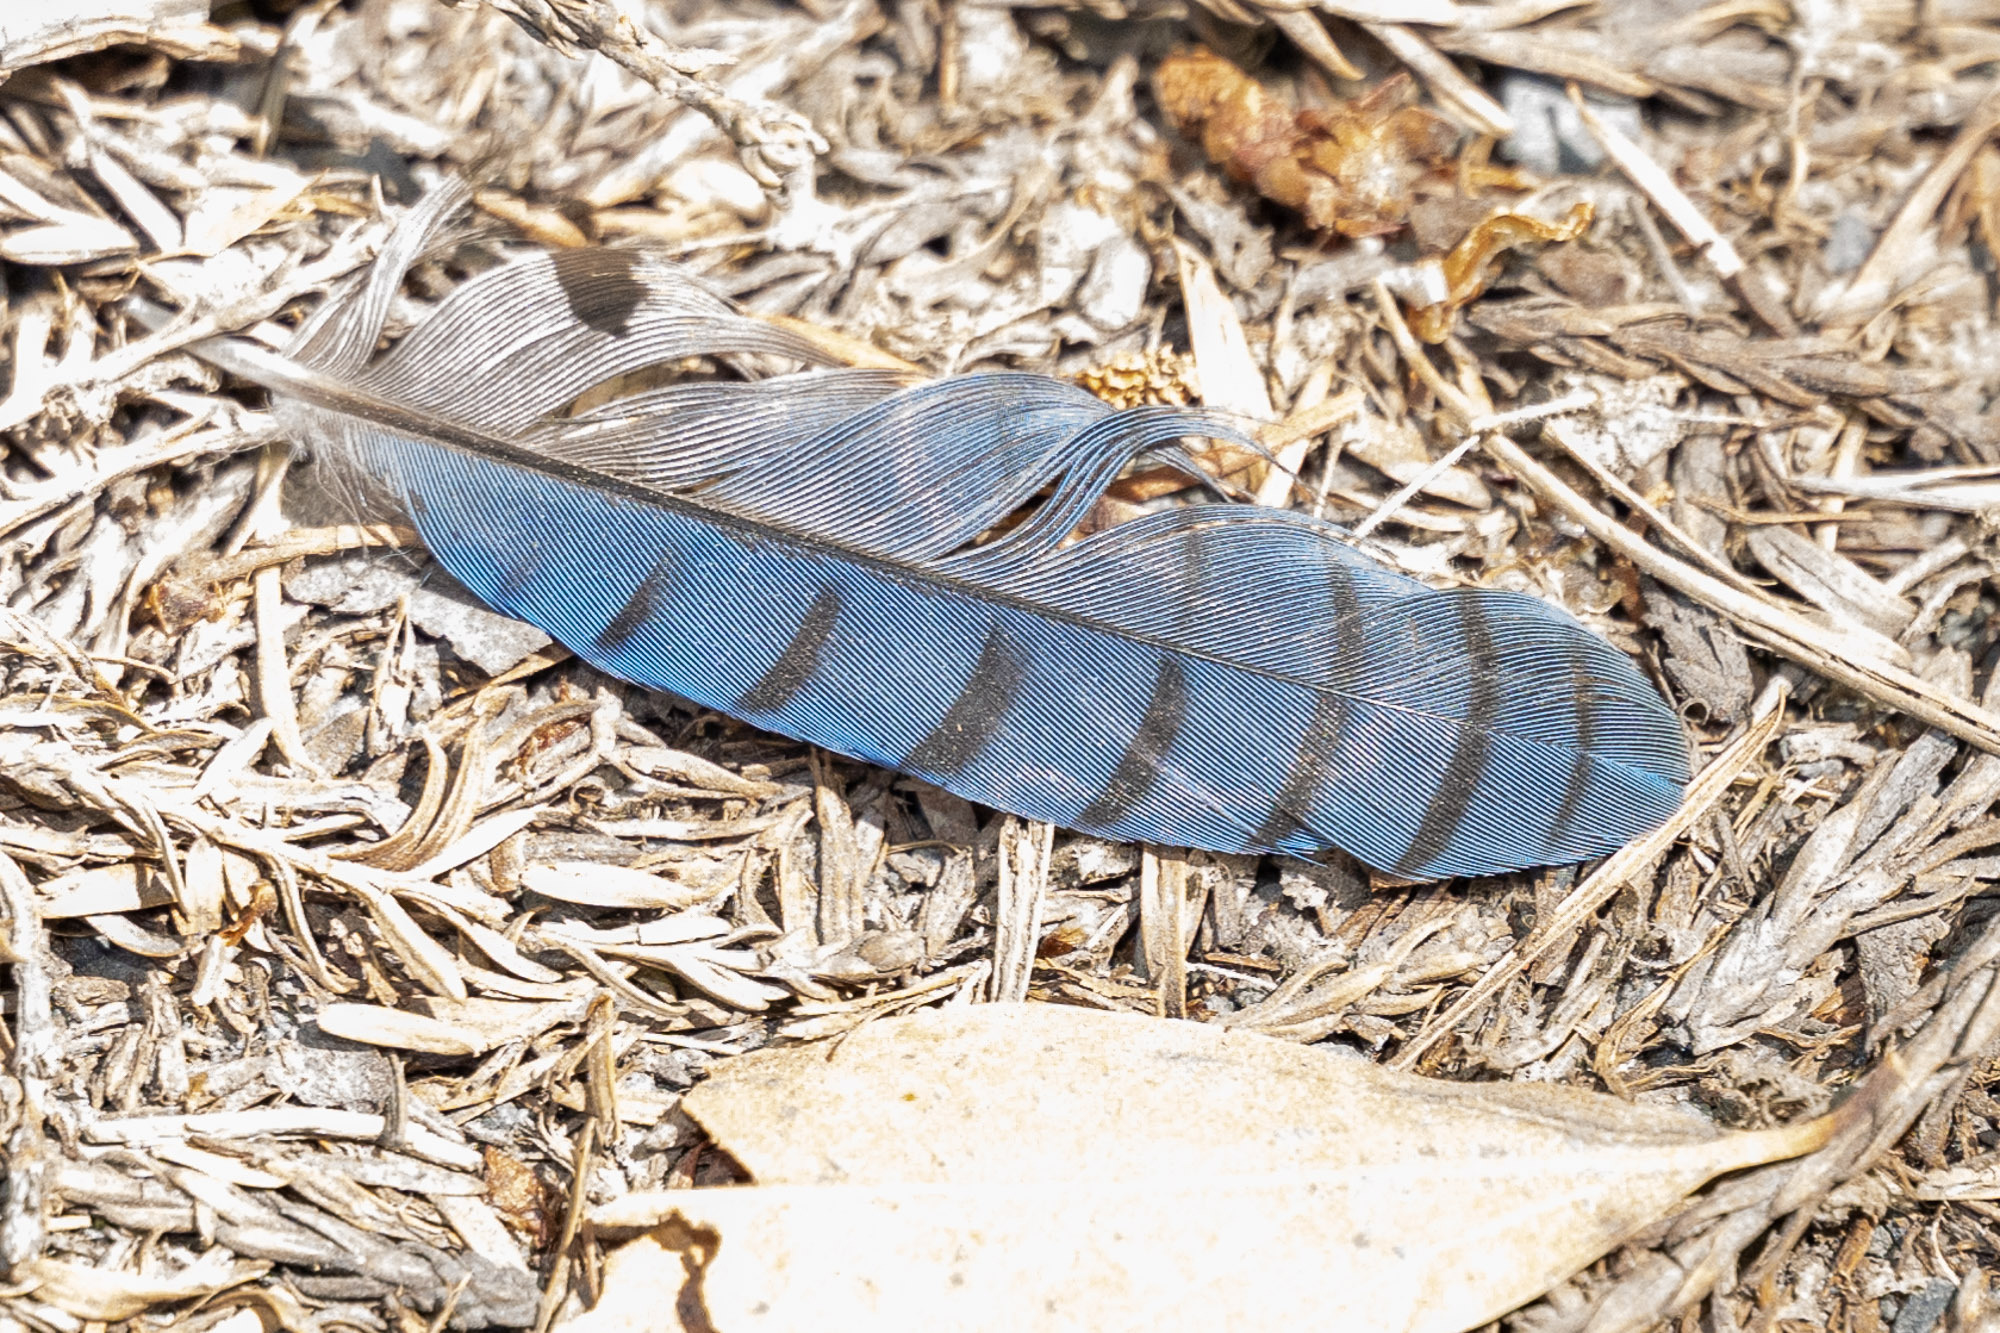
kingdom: Animalia
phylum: Chordata
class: Aves
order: Passeriformes
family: Corvidae
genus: Cyanocitta
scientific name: Cyanocitta stelleri
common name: Steller's jay
